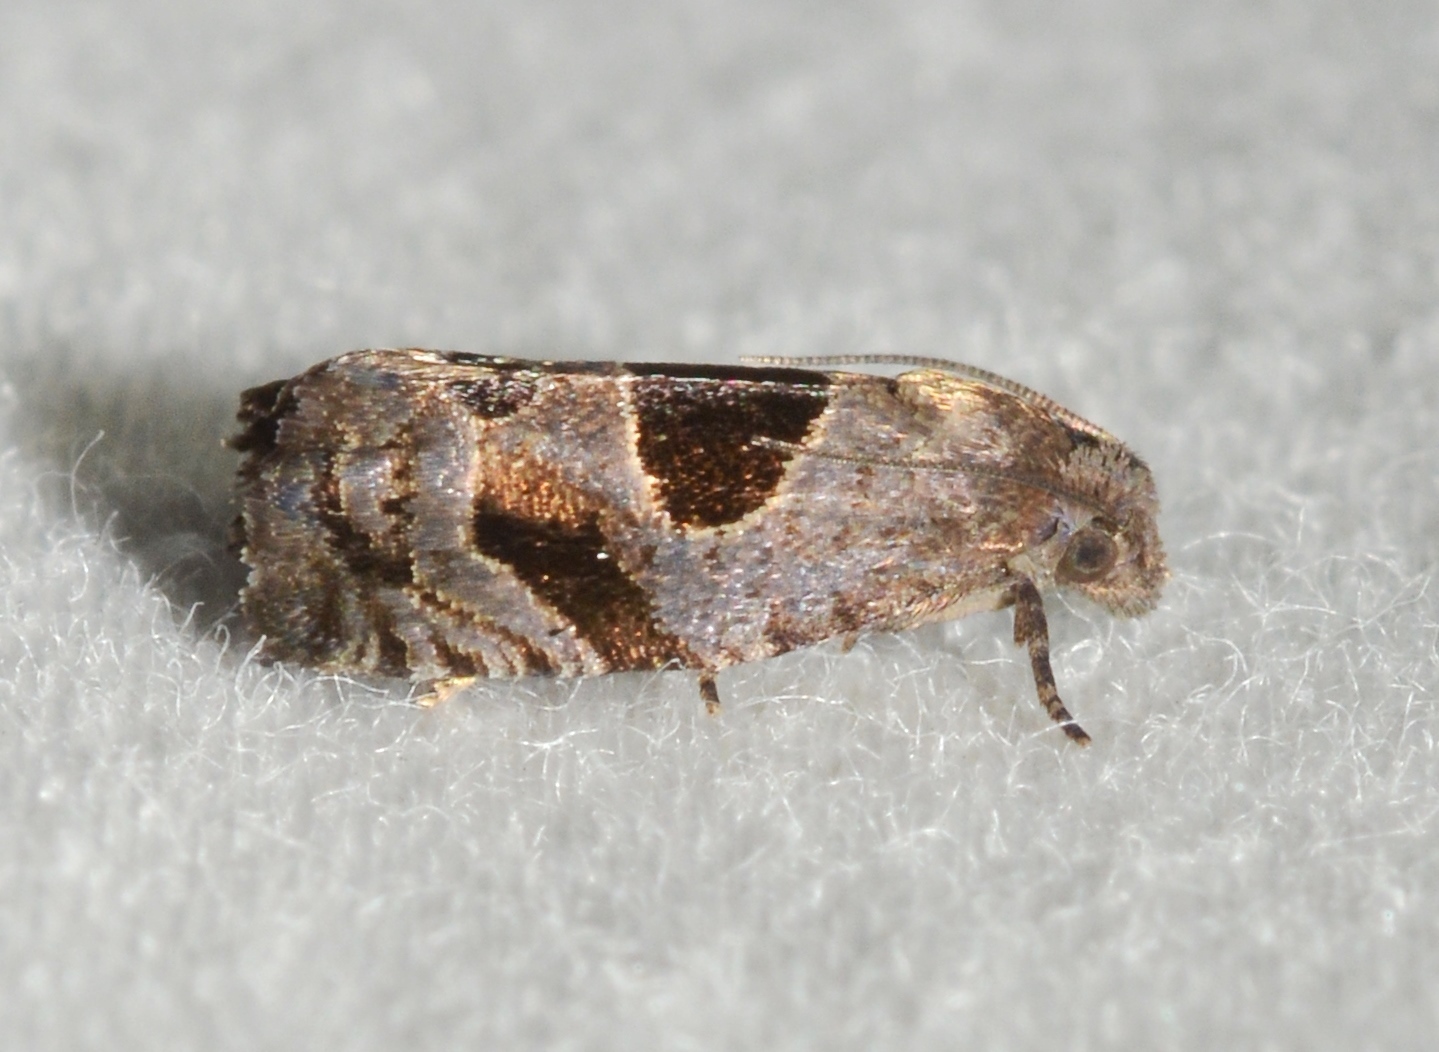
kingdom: Animalia
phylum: Arthropoda
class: Insecta
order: Lepidoptera
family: Tortricidae
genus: Epiblema
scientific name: Epiblema brightonana
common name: Brighton's epiblema moth
